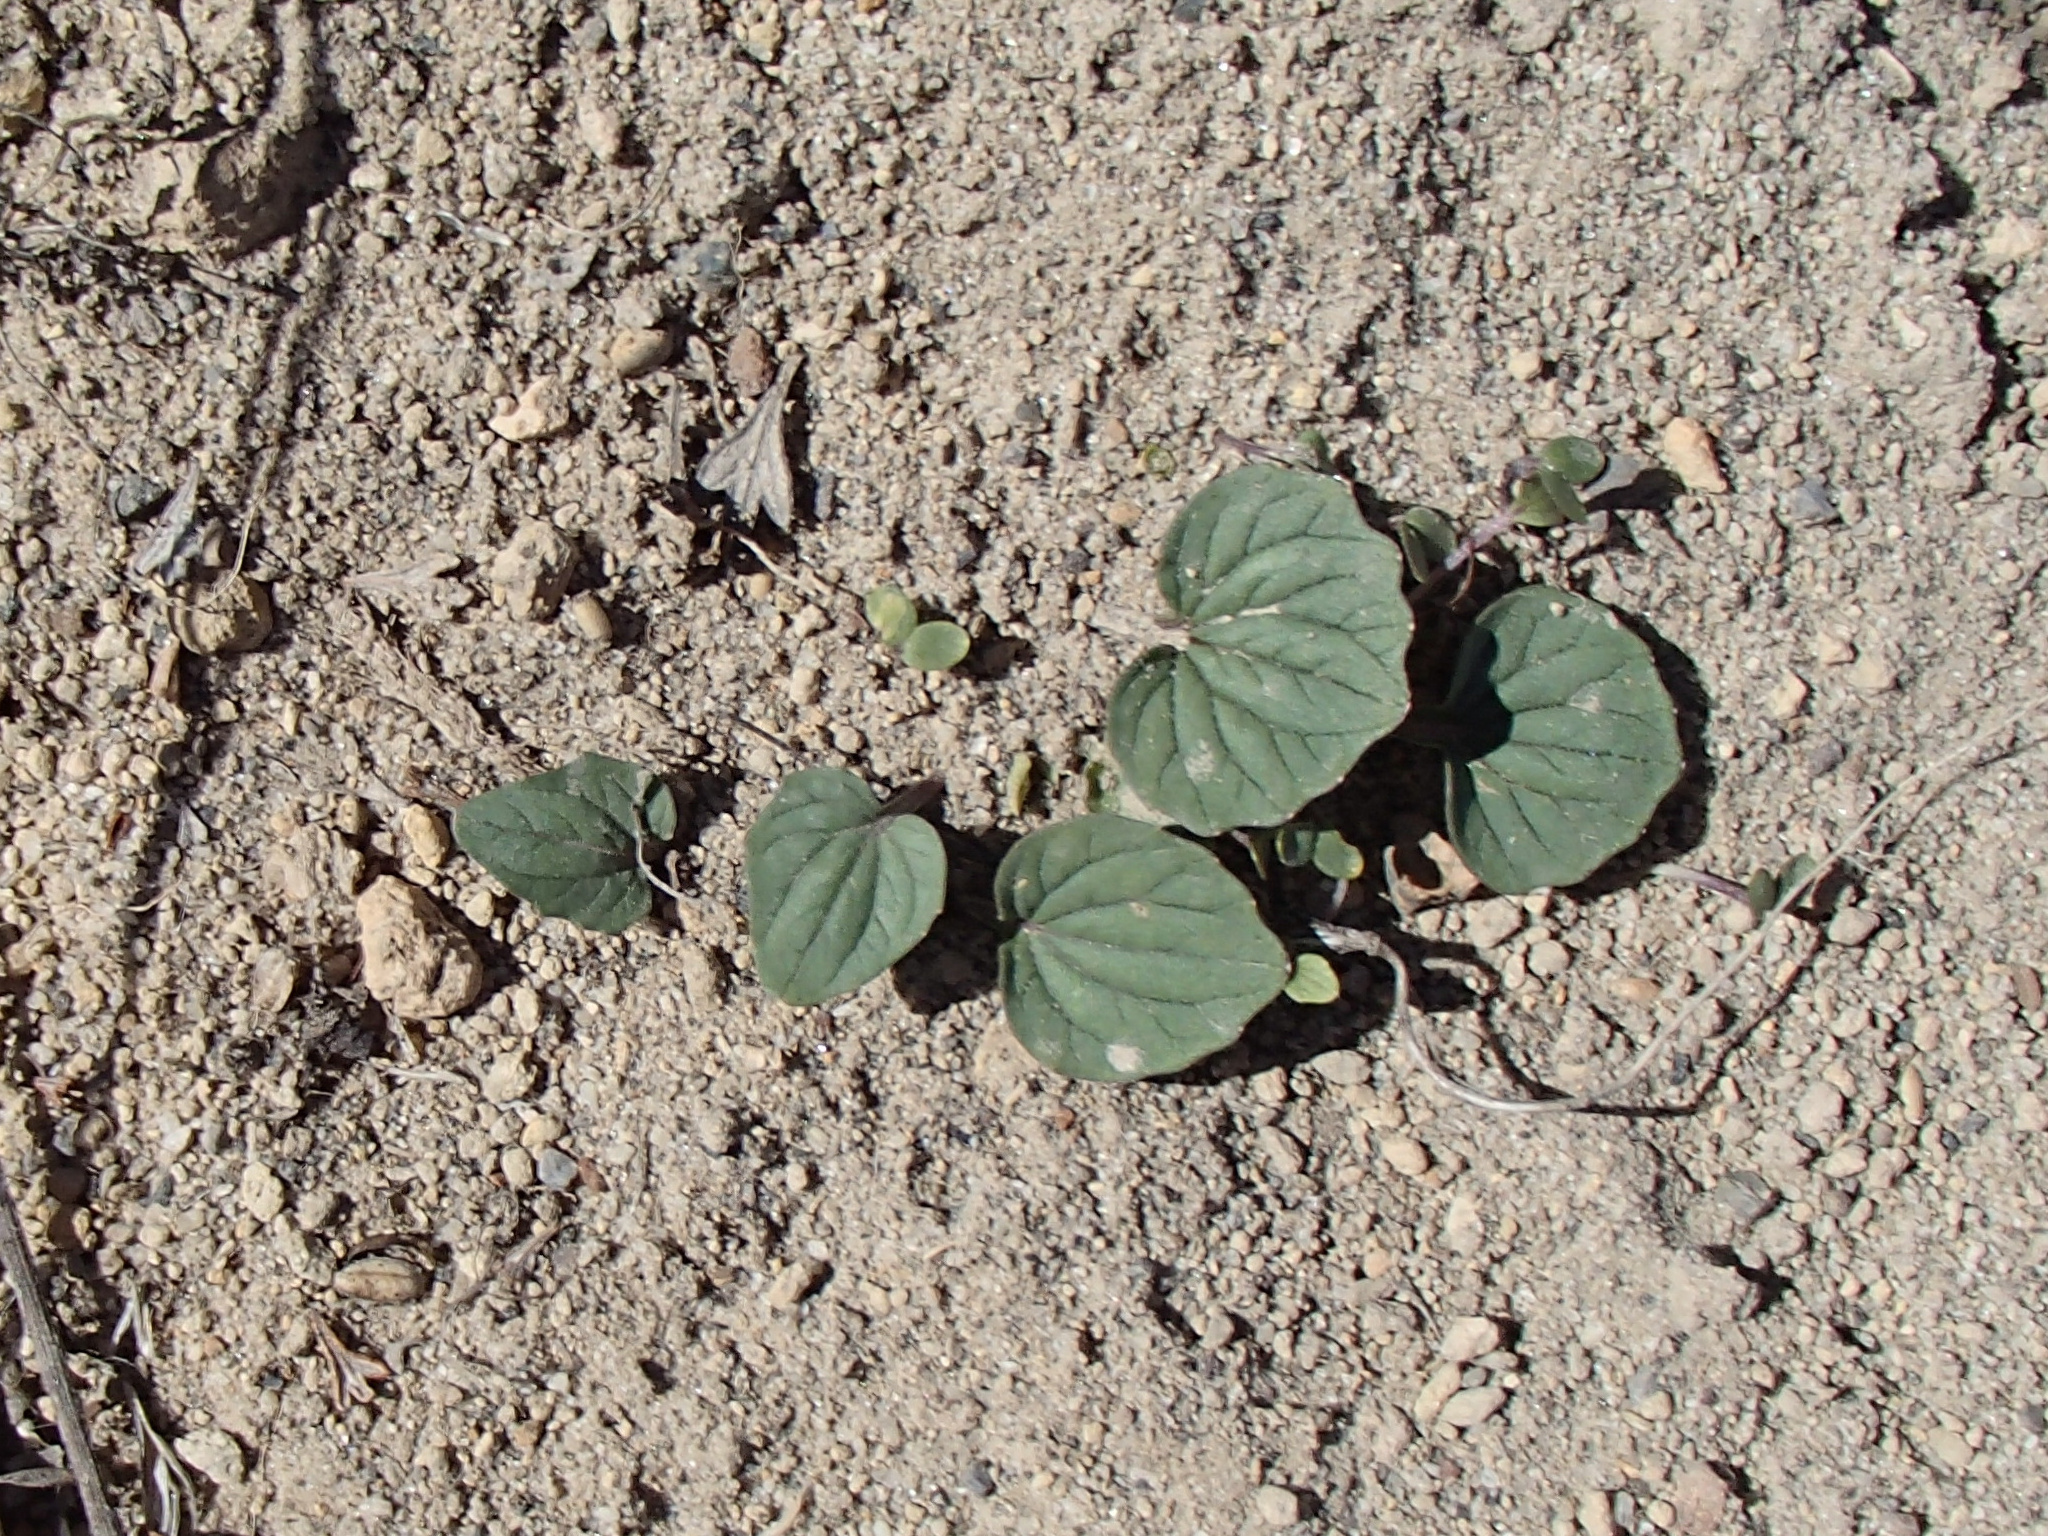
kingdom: Plantae
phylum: Tracheophyta
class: Magnoliopsida
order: Malpighiales
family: Violaceae
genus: Viola
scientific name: Viola purpurea
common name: Pine violet
